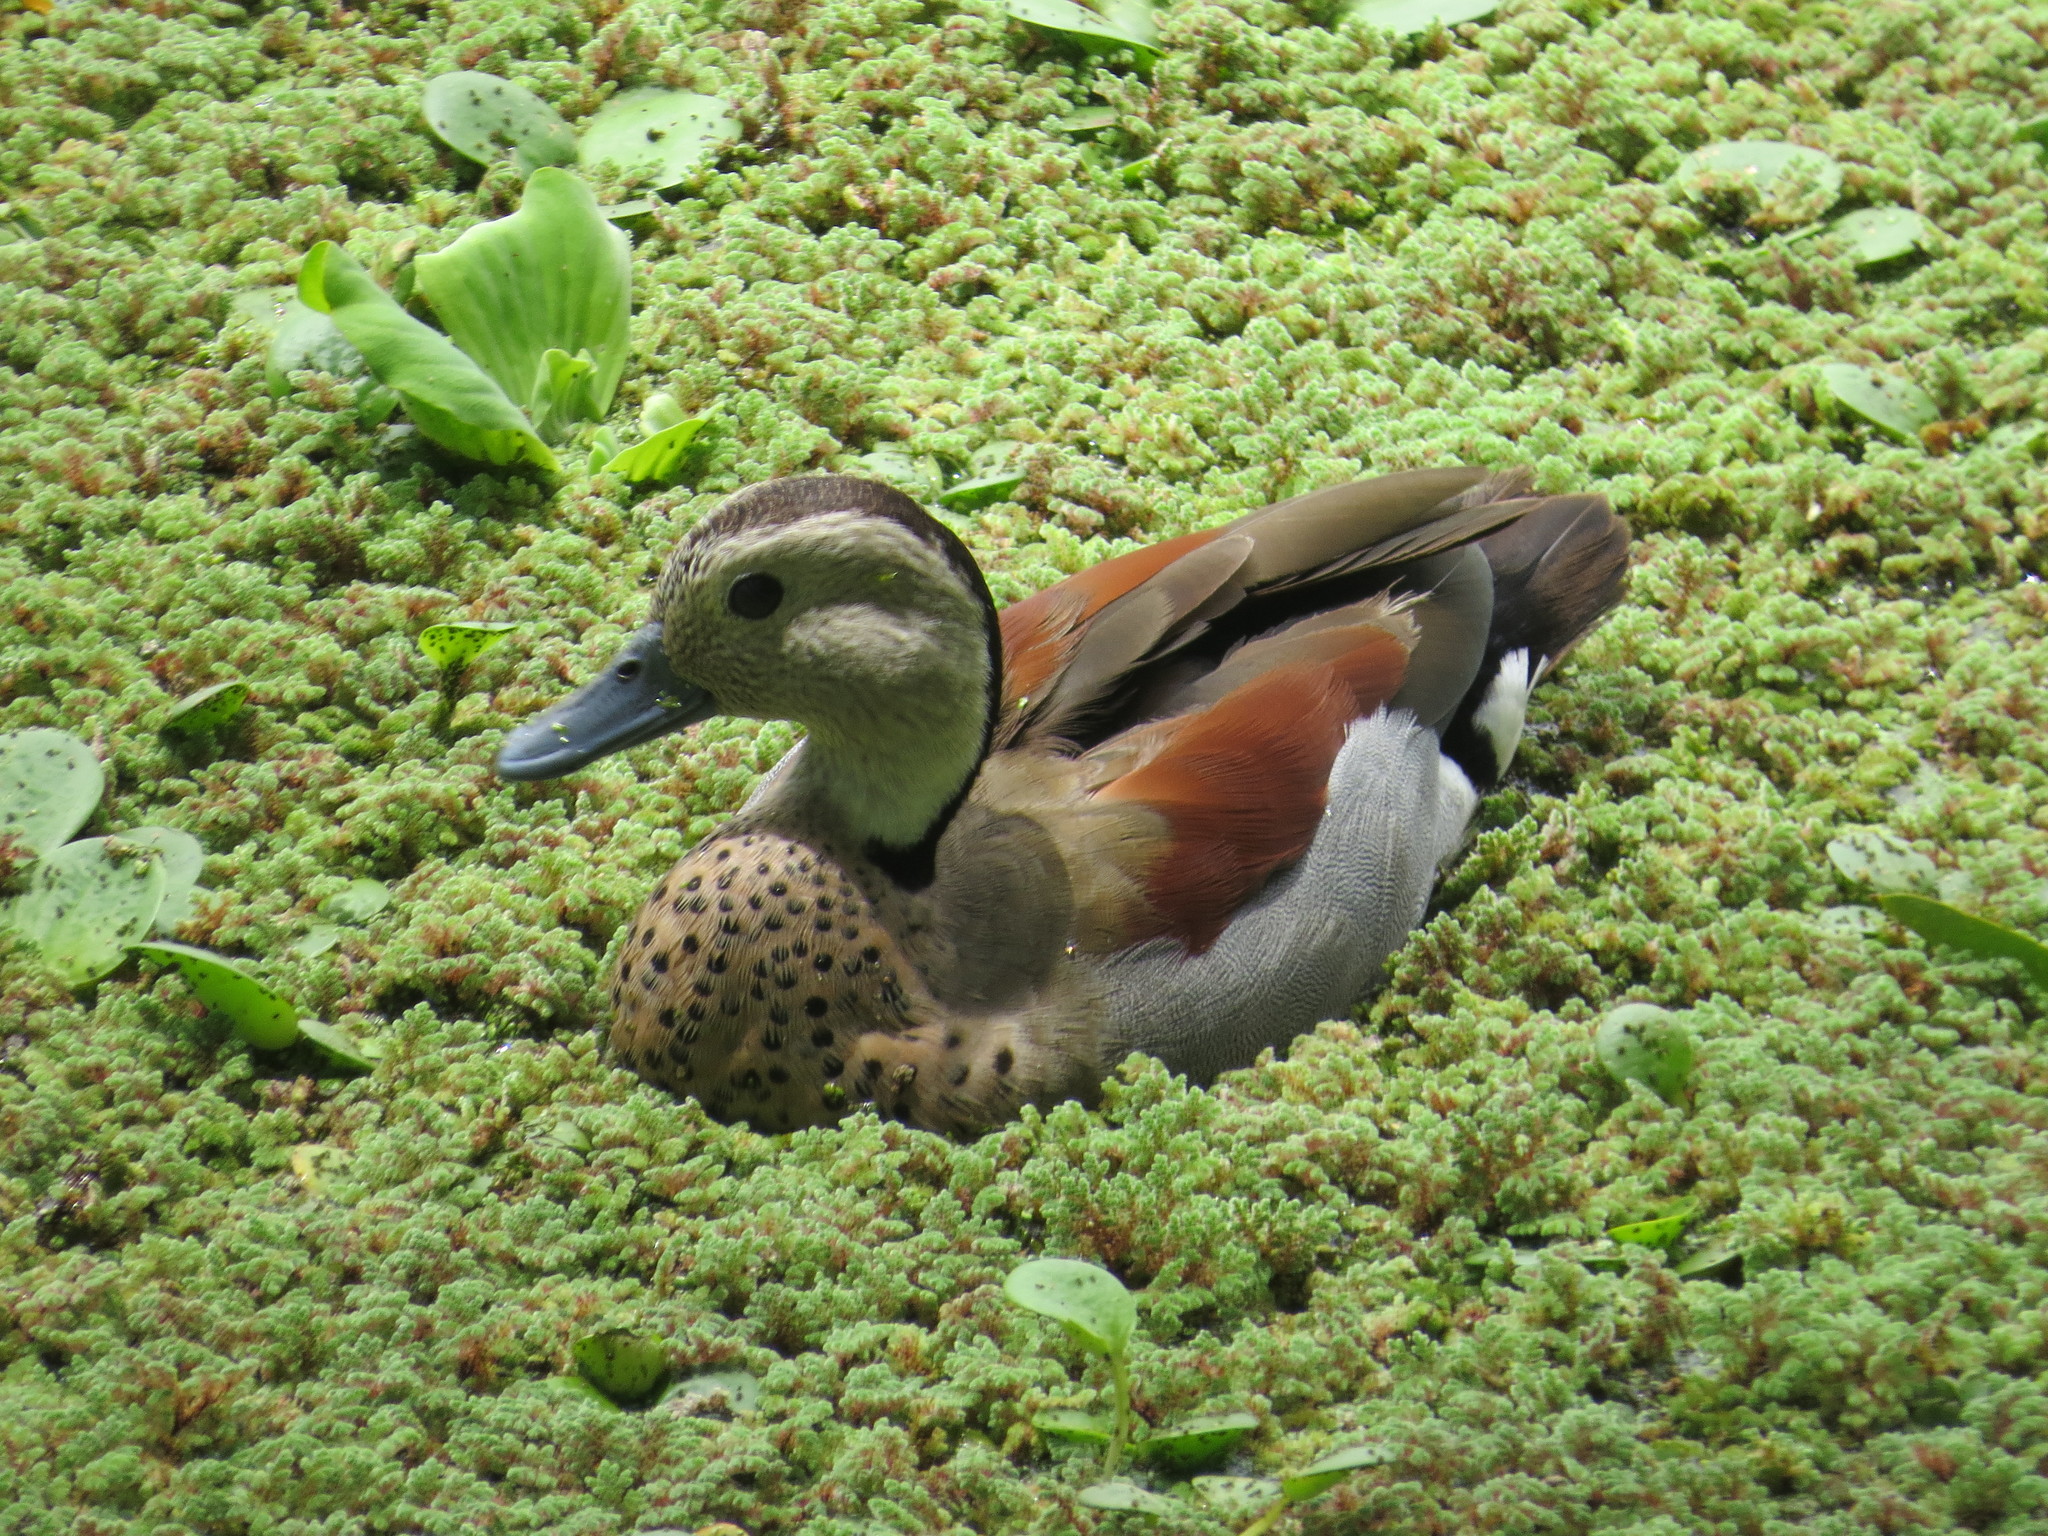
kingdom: Animalia
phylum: Chordata
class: Aves
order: Anseriformes
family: Anatidae
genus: Callonetta
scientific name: Callonetta leucophrys
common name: Ringed teal
